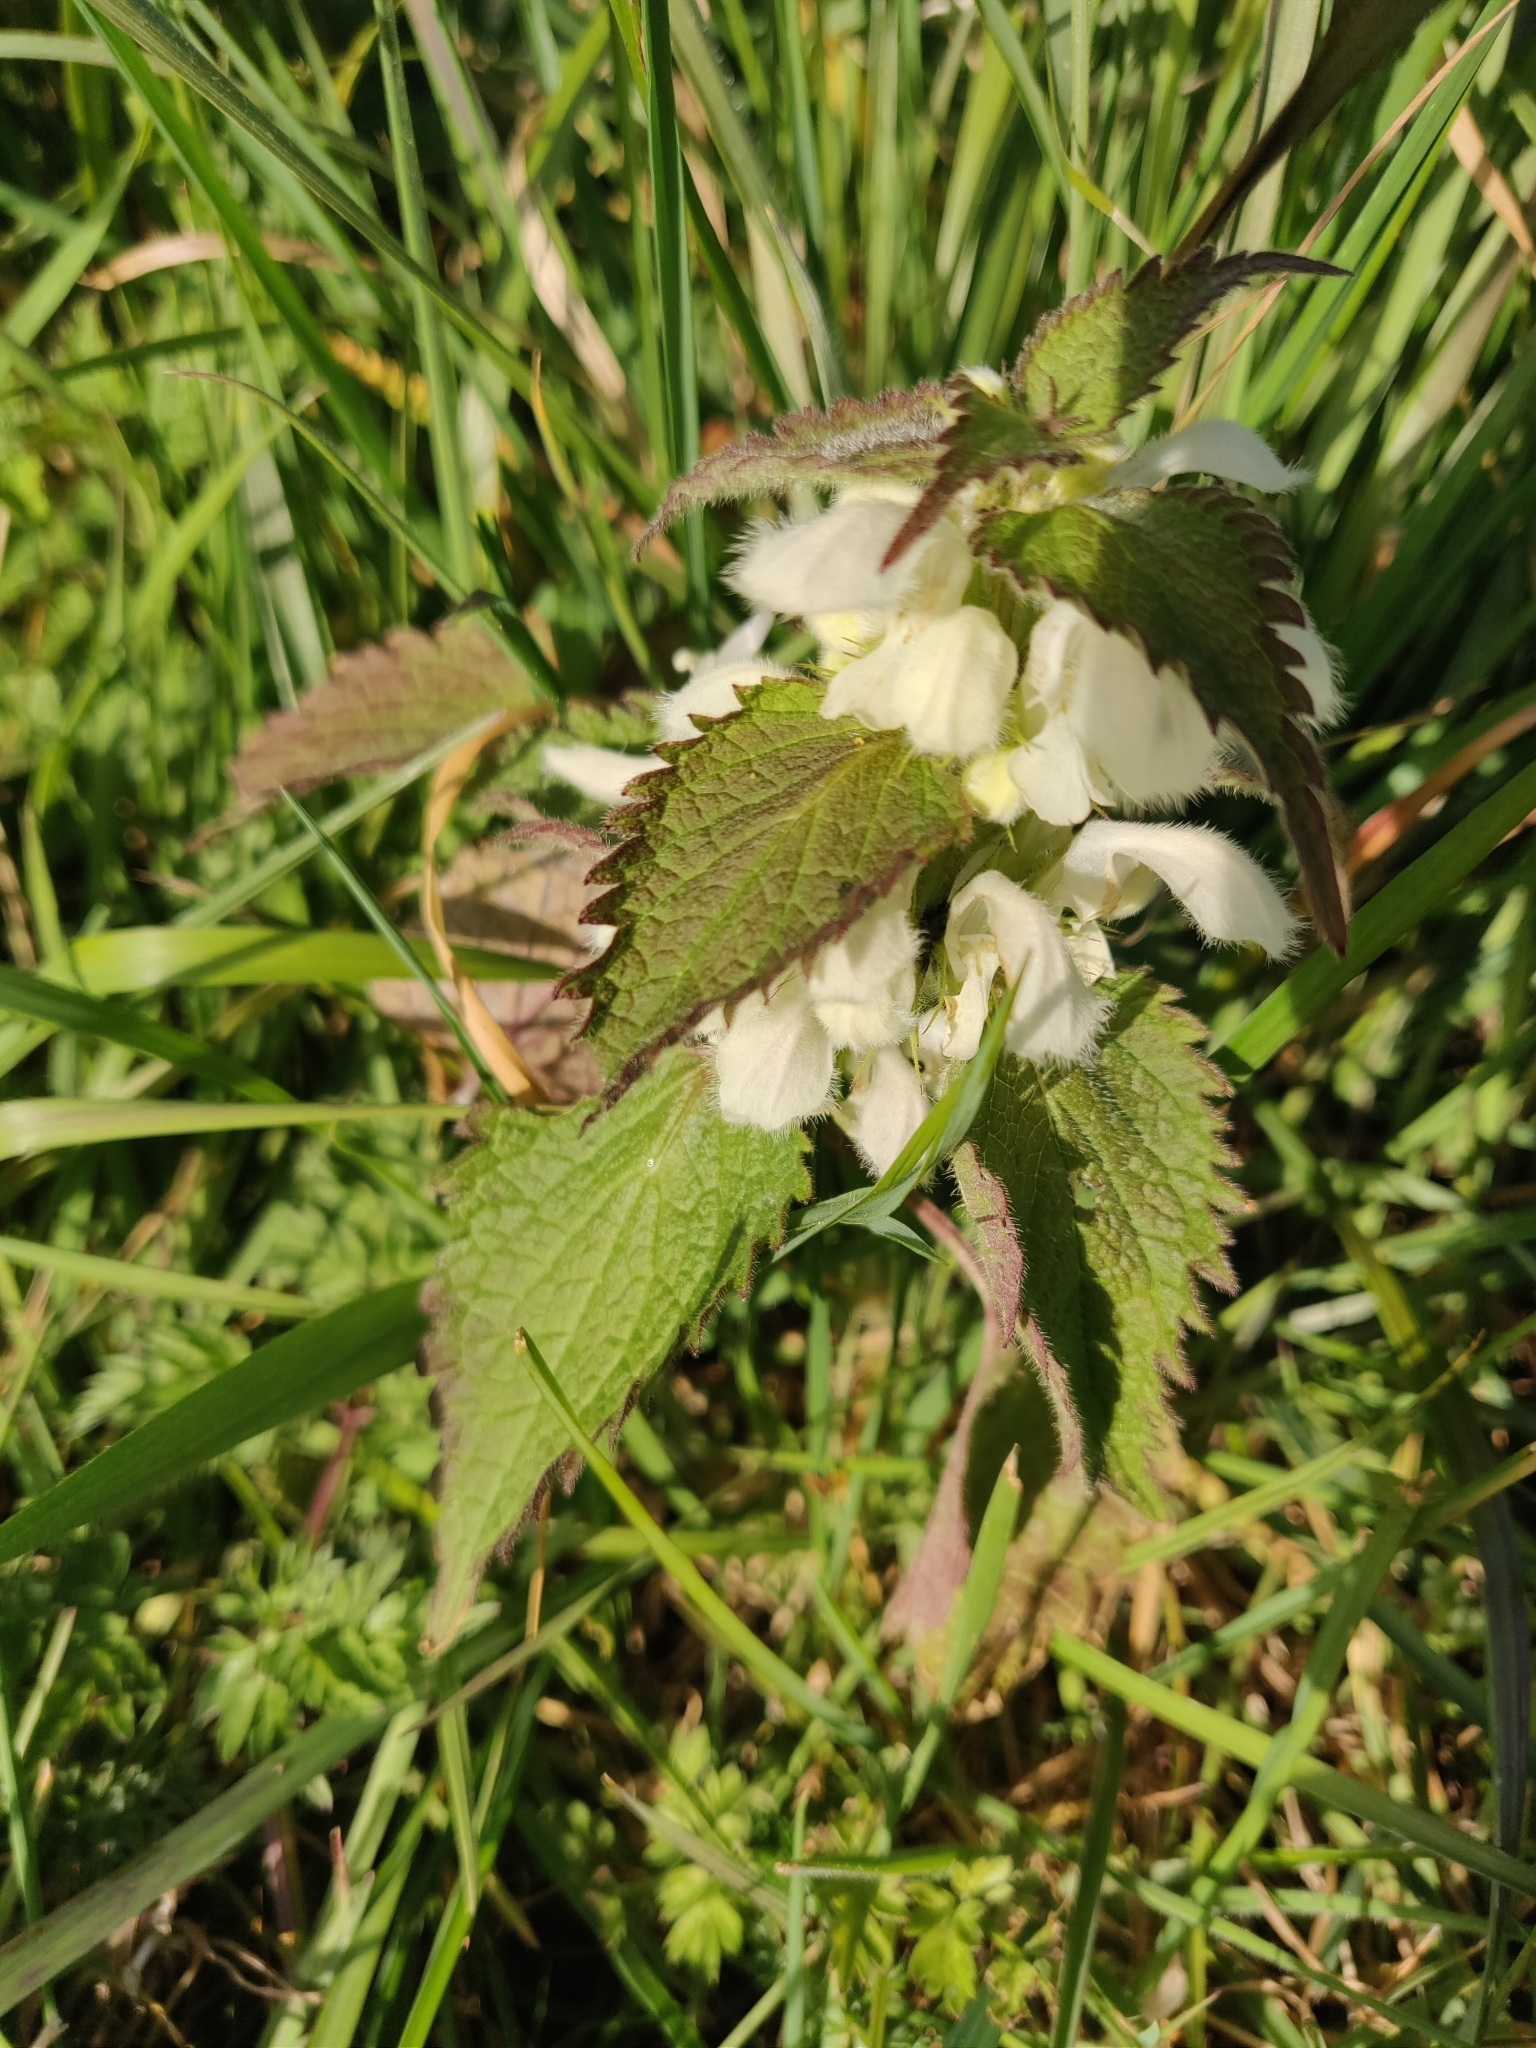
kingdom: Plantae
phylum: Tracheophyta
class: Magnoliopsida
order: Lamiales
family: Lamiaceae
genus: Lamium
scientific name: Lamium album
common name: White dead-nettle
